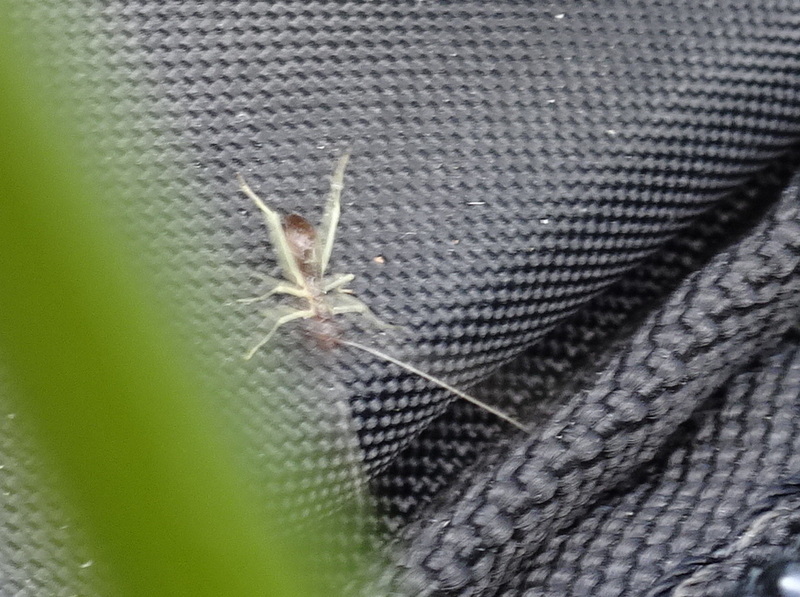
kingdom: Animalia
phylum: Arthropoda
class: Insecta
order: Orthoptera
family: Gryllidae
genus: Neoxabea
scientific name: Neoxabea bipunctata
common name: Two-spotted tree cricket
